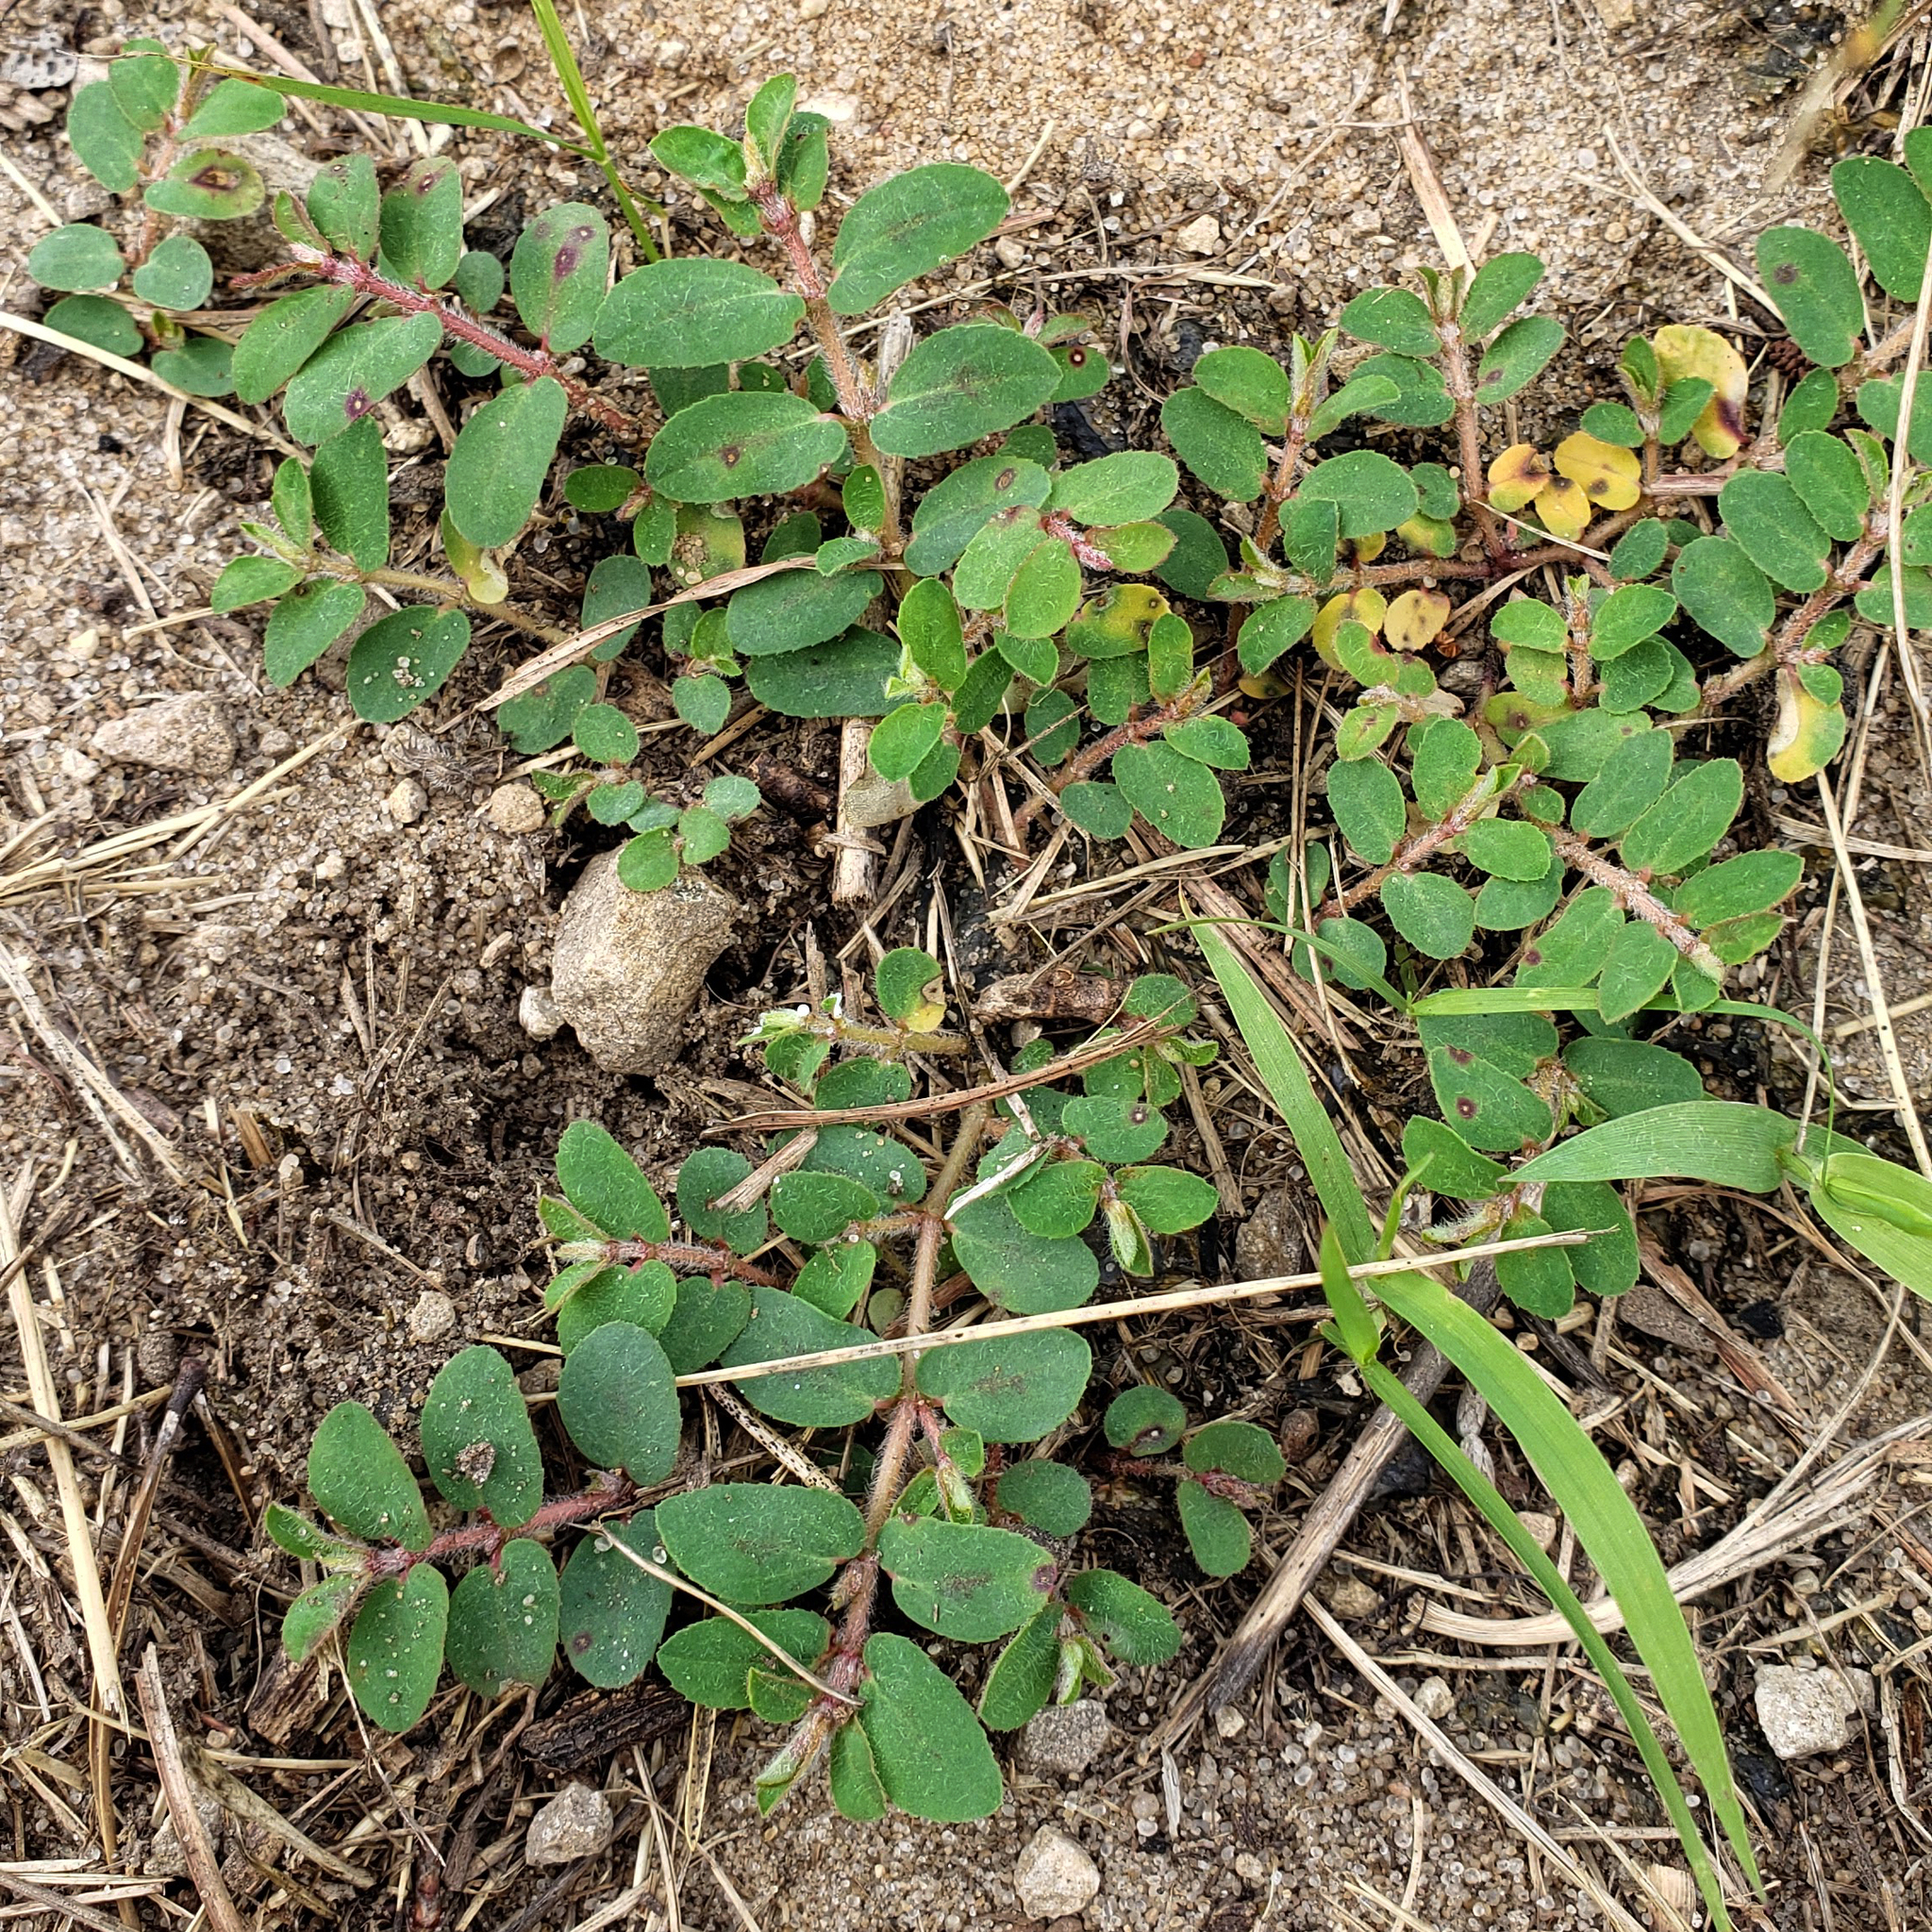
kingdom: Plantae
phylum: Tracheophyta
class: Magnoliopsida
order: Malpighiales
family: Euphorbiaceae
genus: Euphorbia
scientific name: Euphorbia maculata
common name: Spotted spurge
